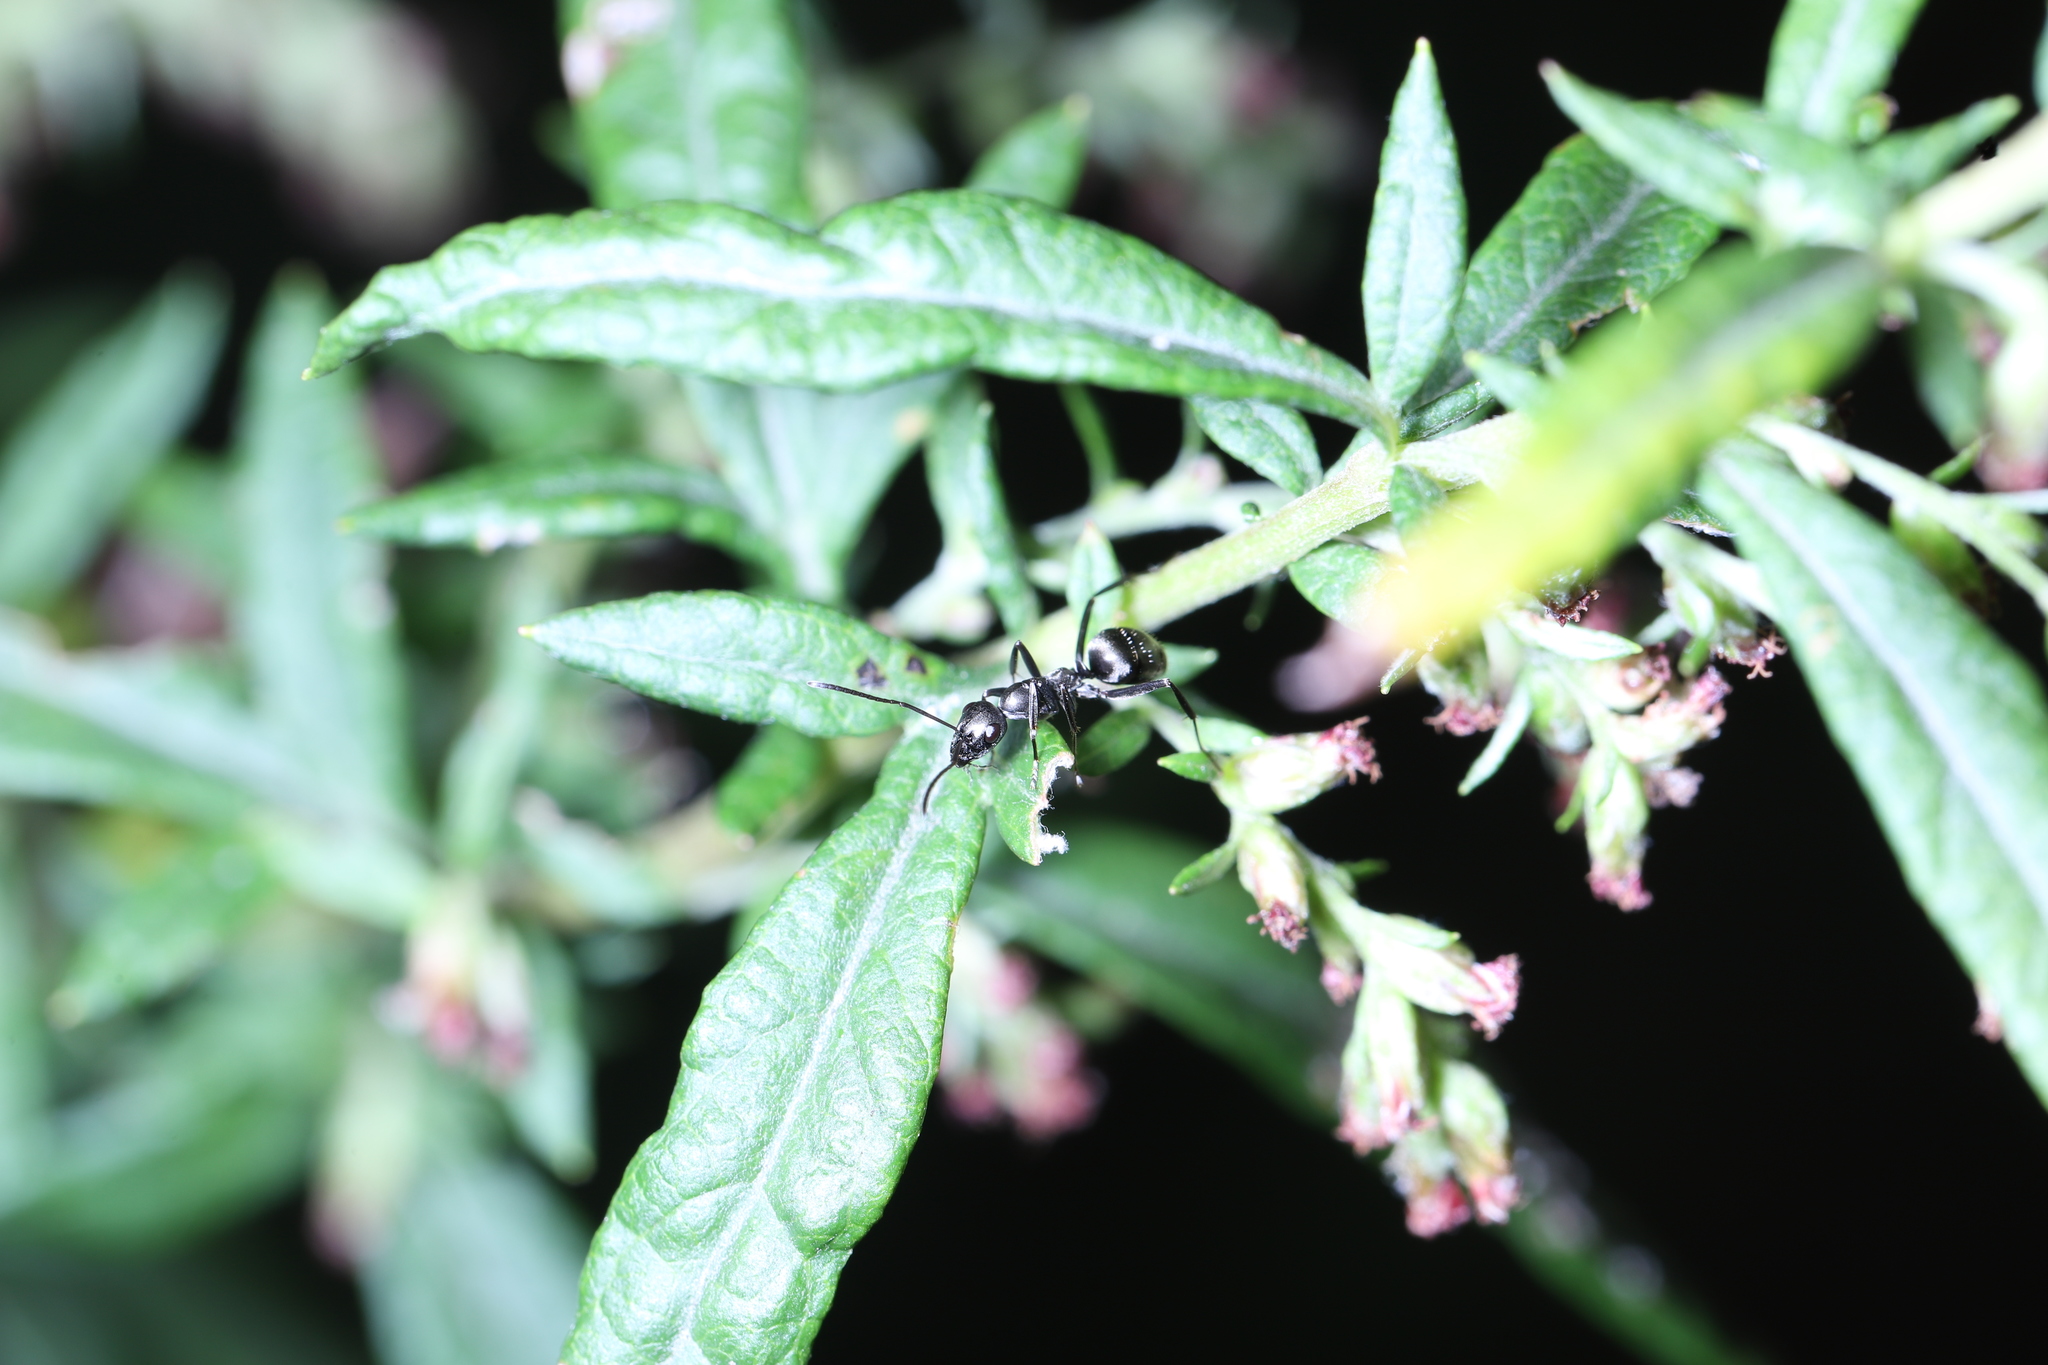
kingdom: Plantae
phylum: Tracheophyta
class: Magnoliopsida
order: Asterales
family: Asteraceae
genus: Artemisia
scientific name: Artemisia vulgaris
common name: Mugwort
